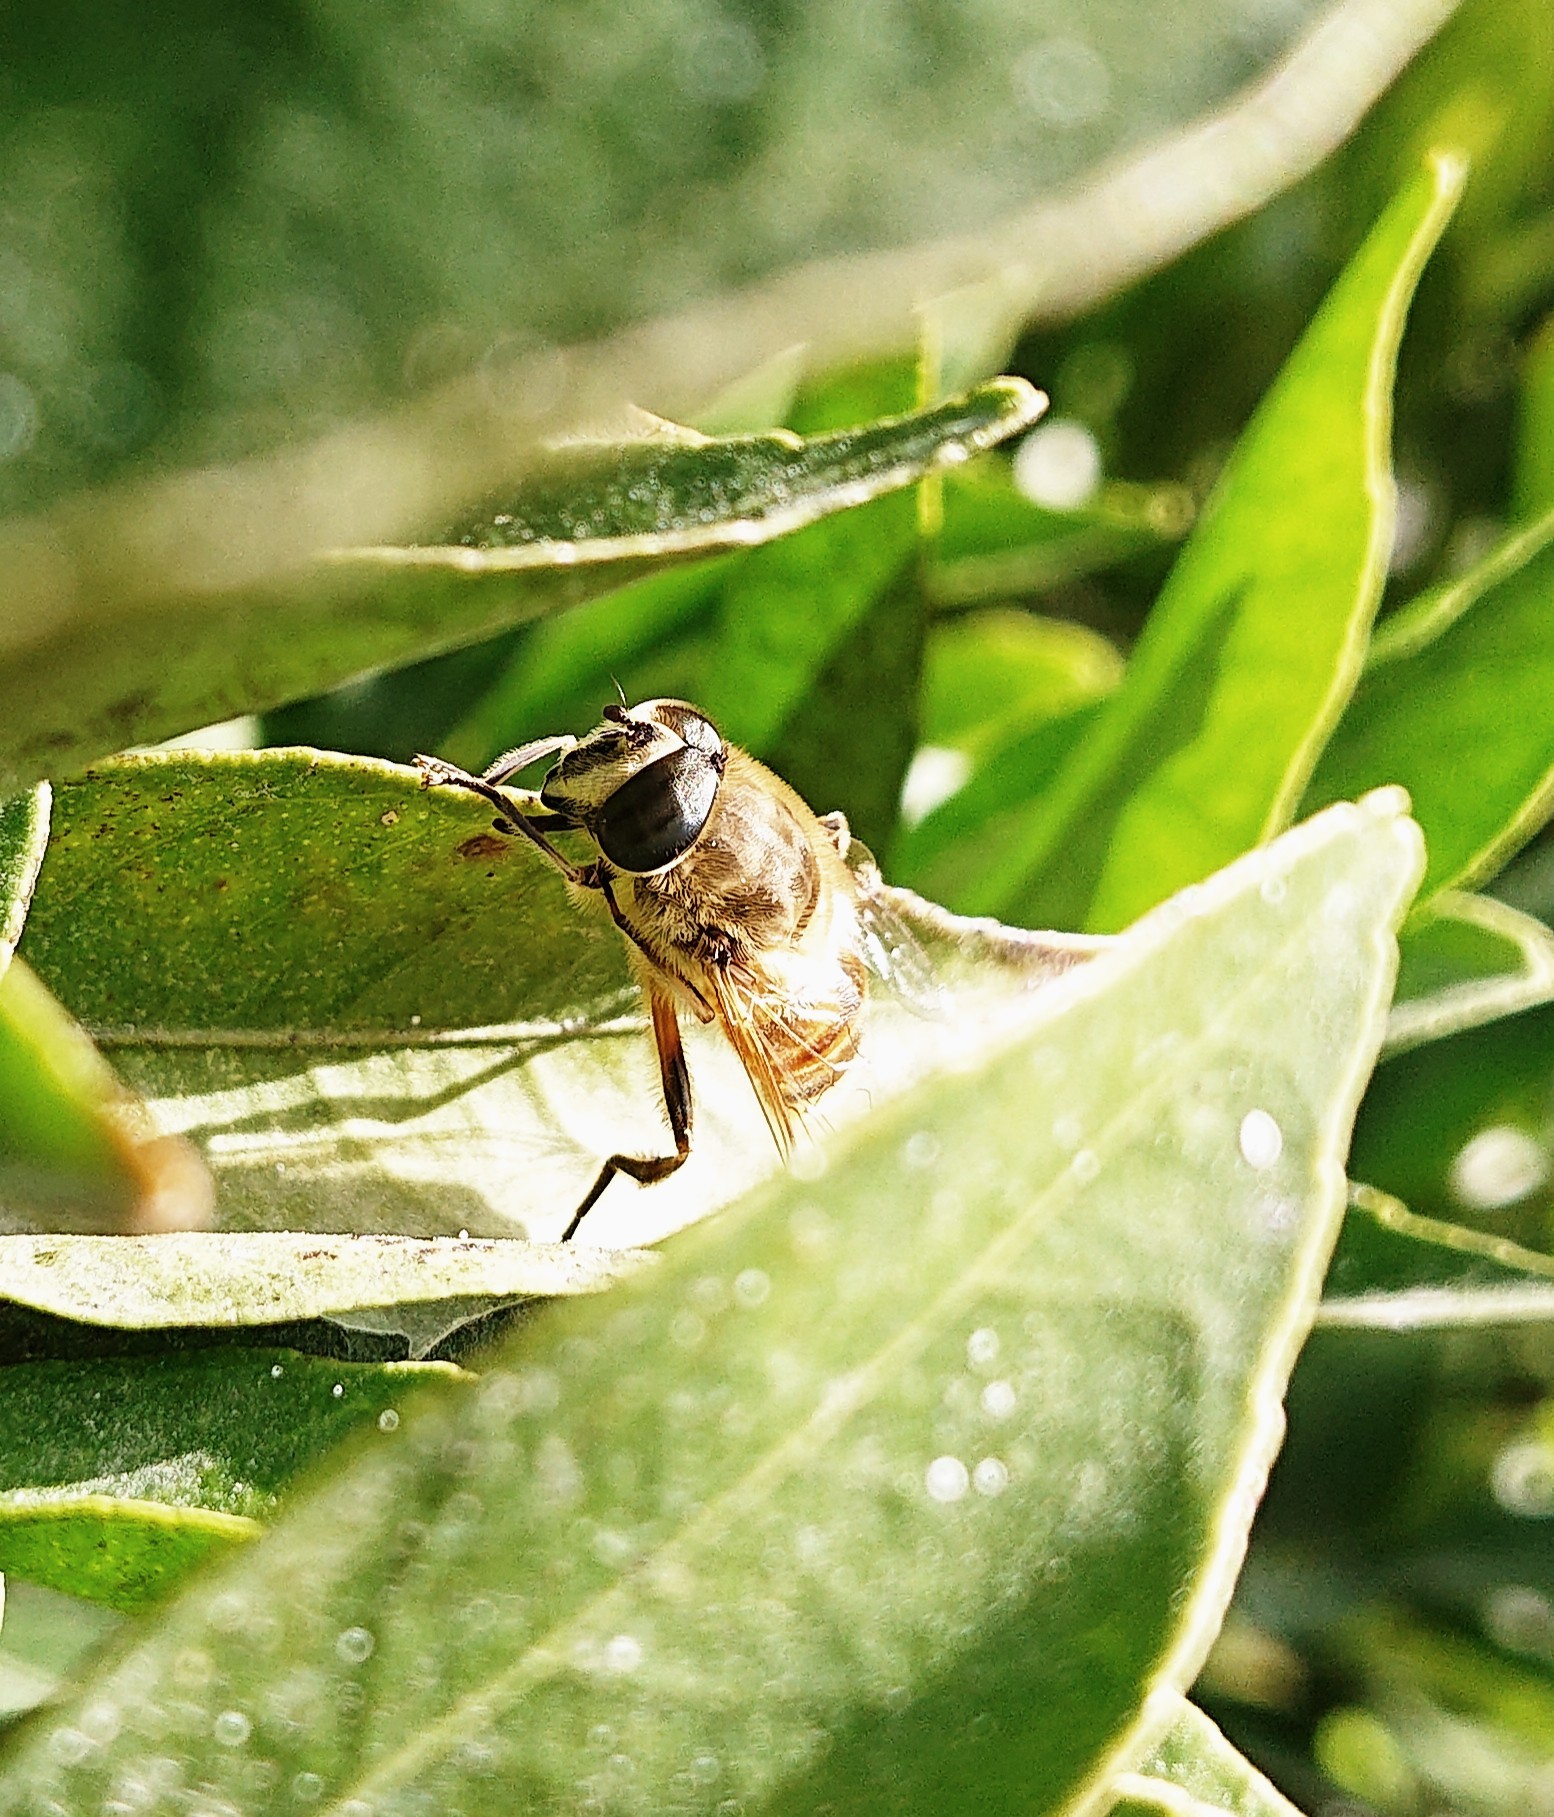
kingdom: Animalia
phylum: Arthropoda
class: Insecta
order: Diptera
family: Syrphidae
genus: Eristalis
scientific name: Eristalis tenax
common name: Drone fly
